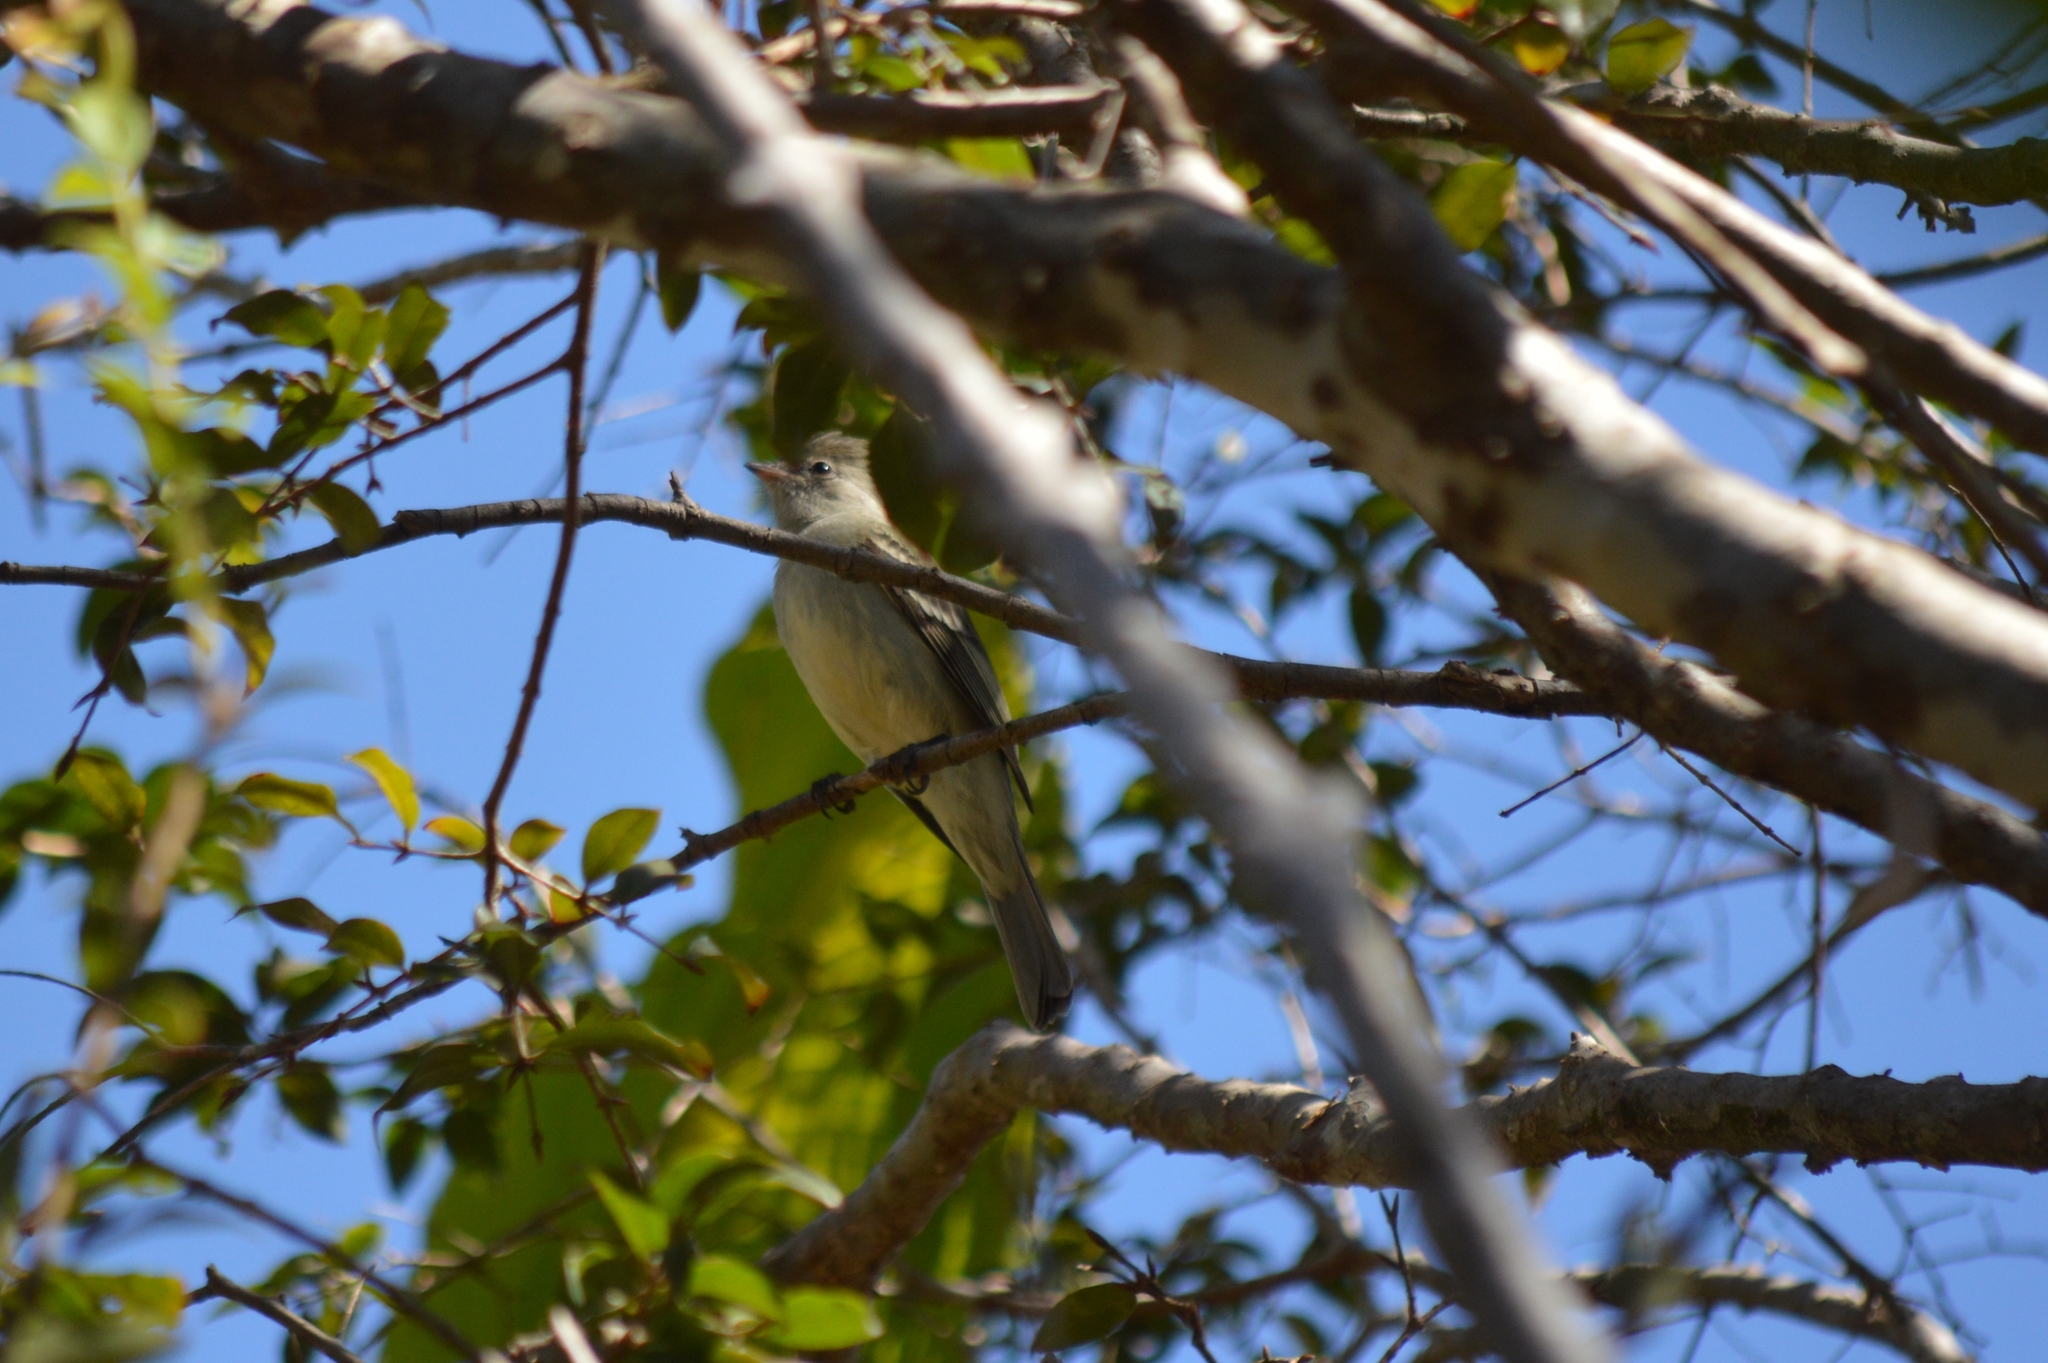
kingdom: Animalia
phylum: Chordata
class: Aves
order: Passeriformes
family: Tyrannidae
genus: Myiarchus
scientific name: Myiarchus tyrannulus
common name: Brown-crested flycatcher
